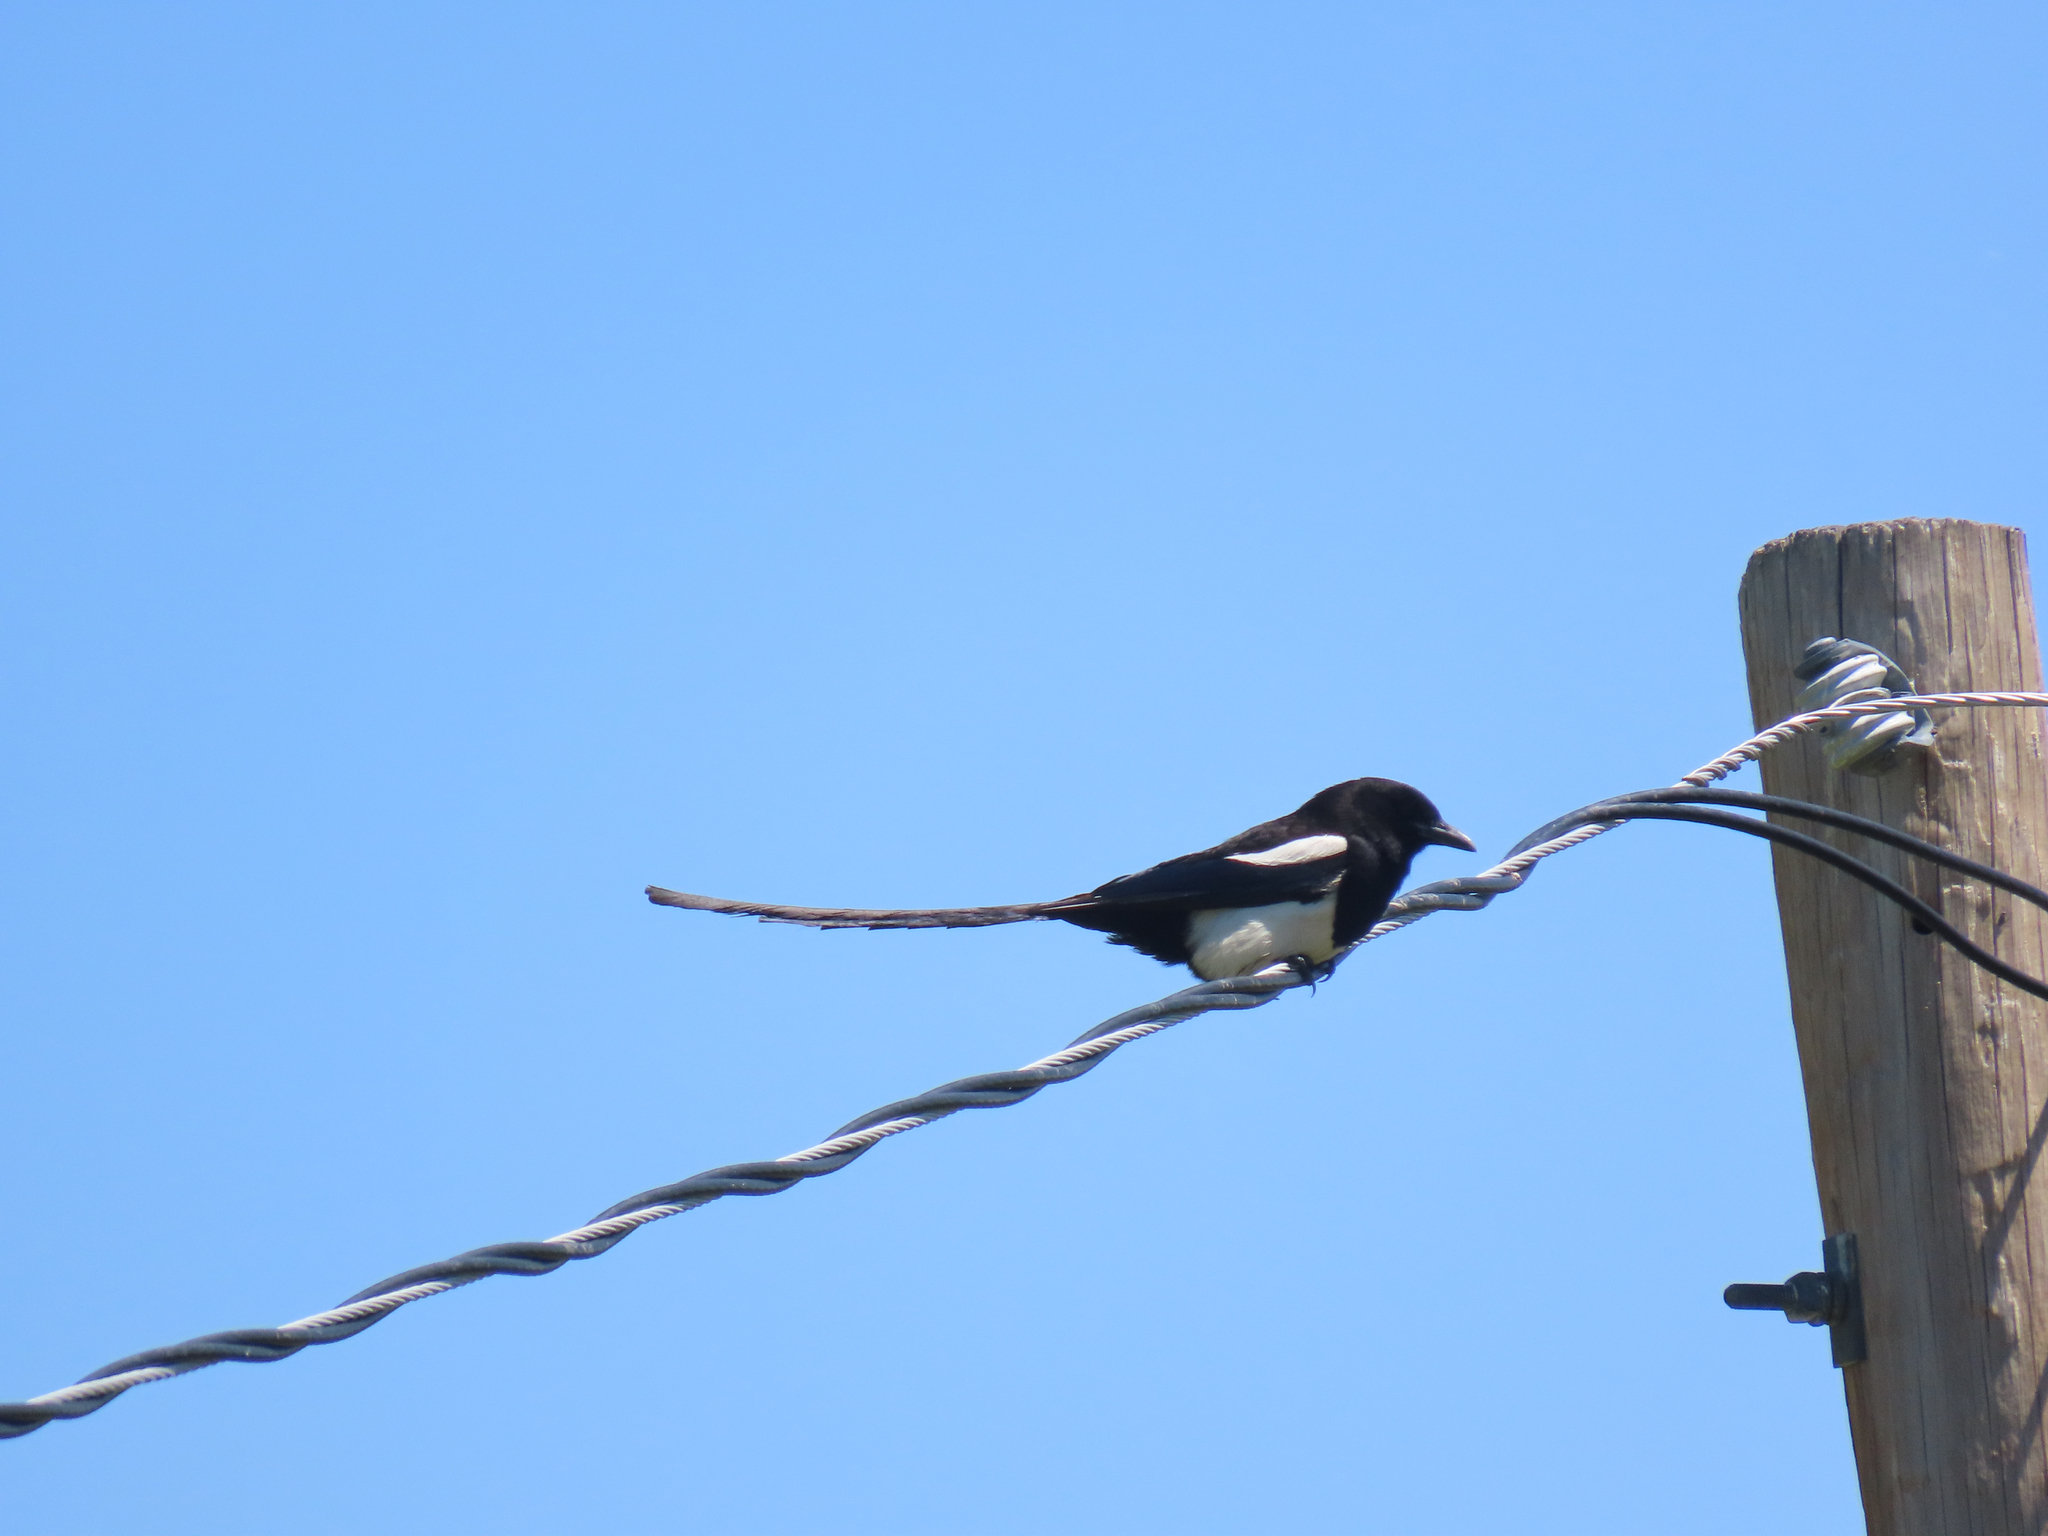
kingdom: Animalia
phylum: Chordata
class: Aves
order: Passeriformes
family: Corvidae
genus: Pica
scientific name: Pica hudsonia
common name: Black-billed magpie
